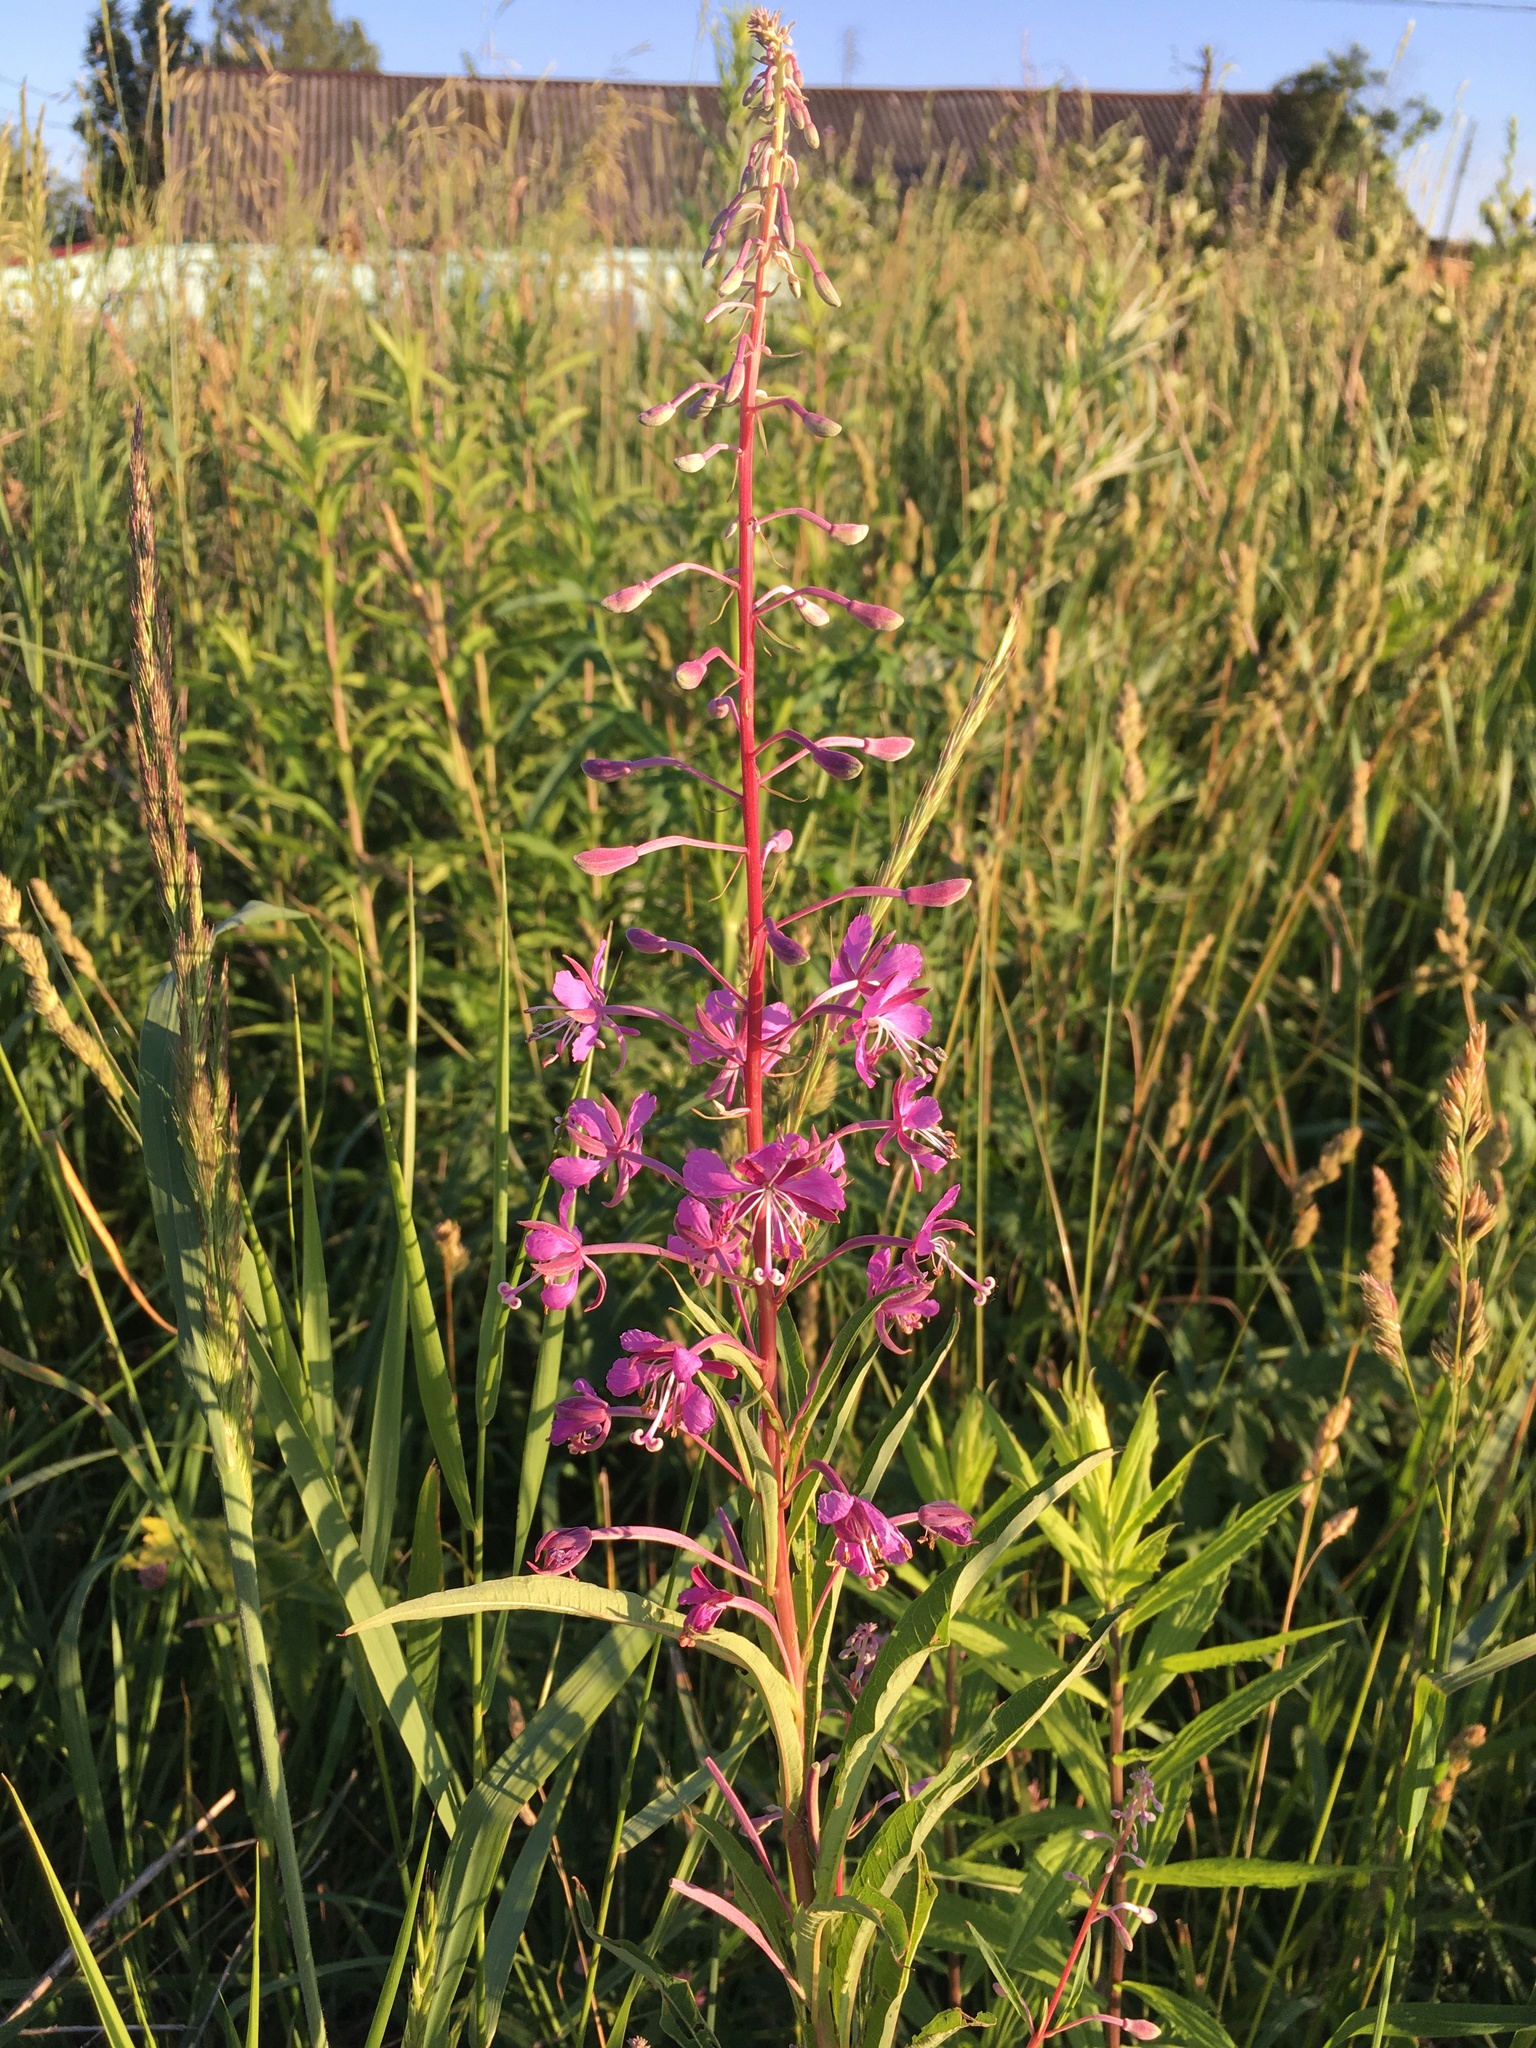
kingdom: Plantae
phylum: Tracheophyta
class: Magnoliopsida
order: Myrtales
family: Onagraceae
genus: Chamaenerion
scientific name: Chamaenerion angustifolium
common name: Fireweed
